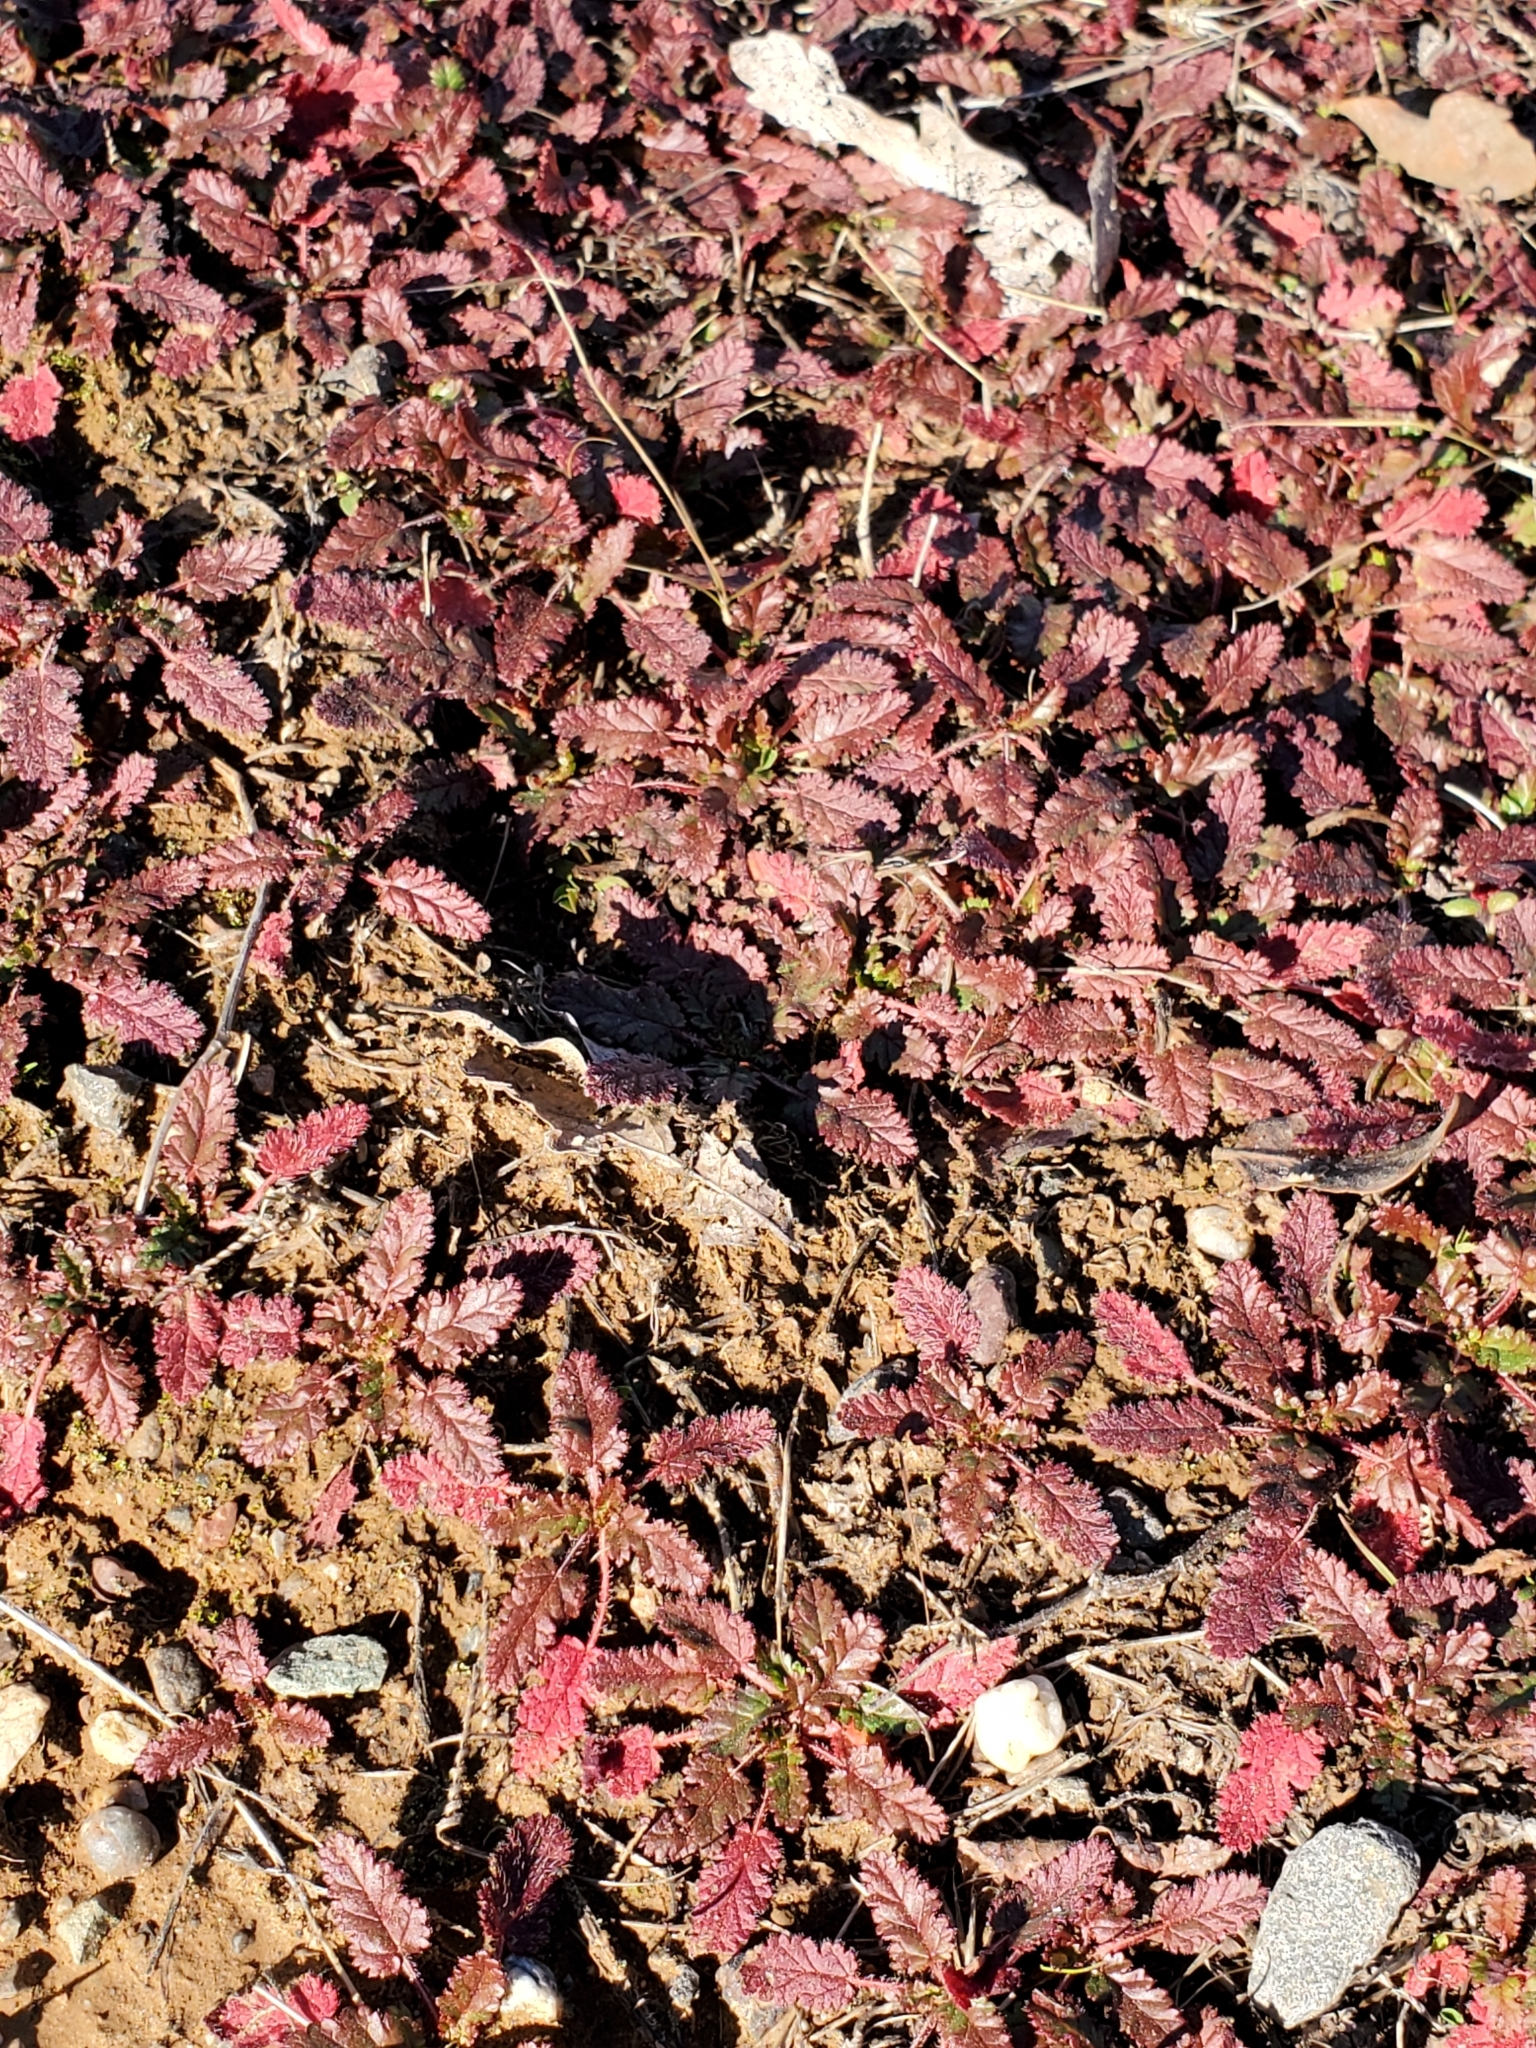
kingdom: Plantae
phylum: Tracheophyta
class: Magnoliopsida
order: Geraniales
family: Geraniaceae
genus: Erodium
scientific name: Erodium
